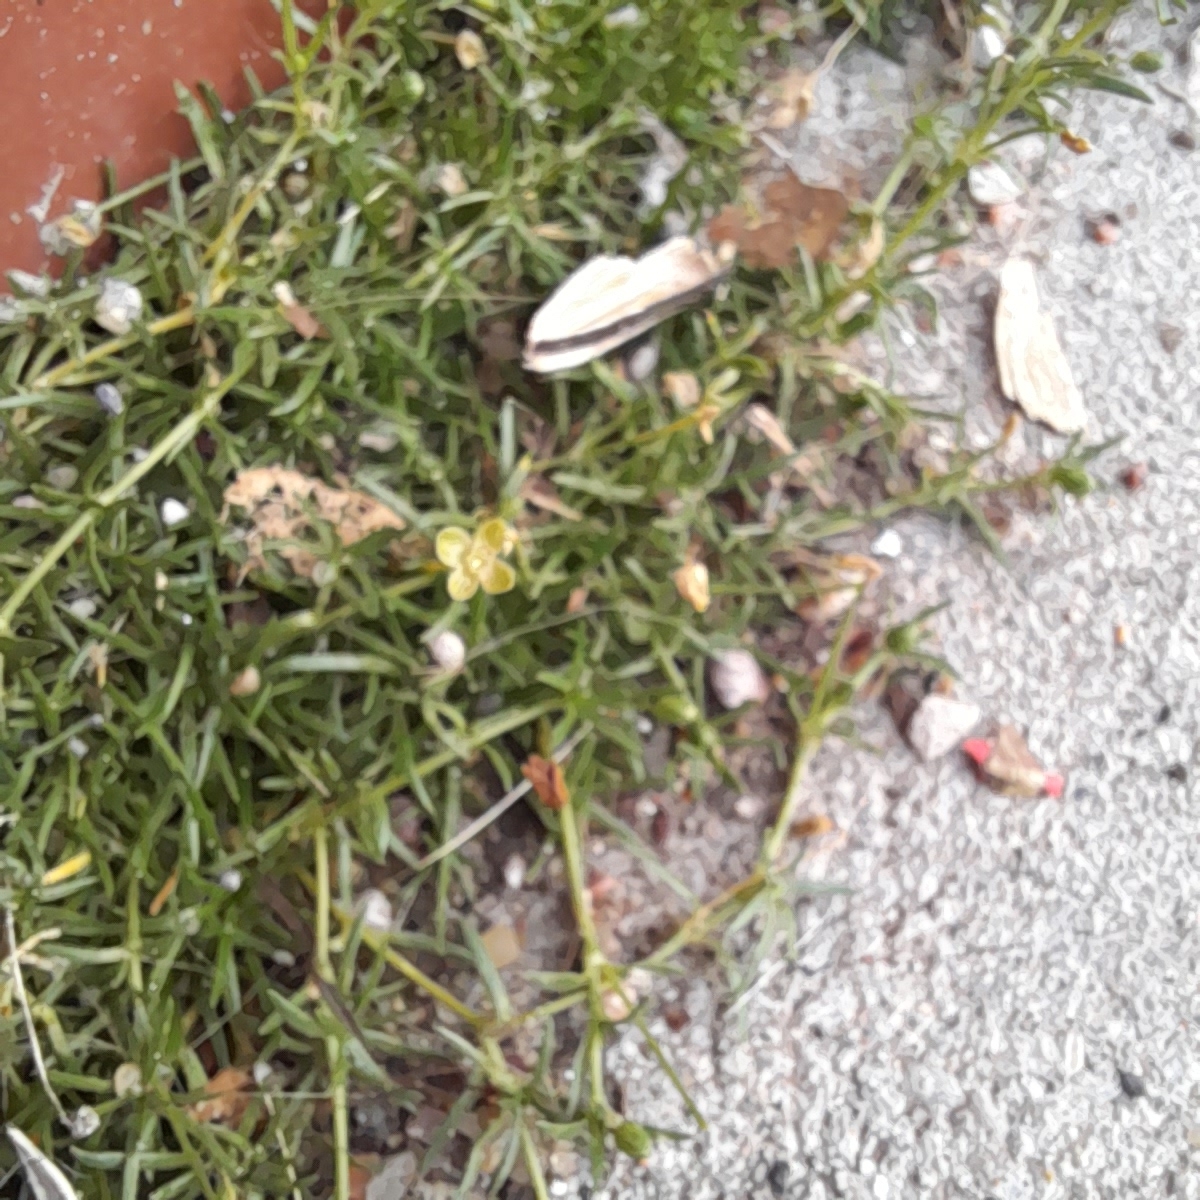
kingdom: Plantae
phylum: Tracheophyta
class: Magnoliopsida
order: Caryophyllales
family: Caryophyllaceae
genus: Sagina
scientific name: Sagina procumbens
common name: Procumbent pearlwort
